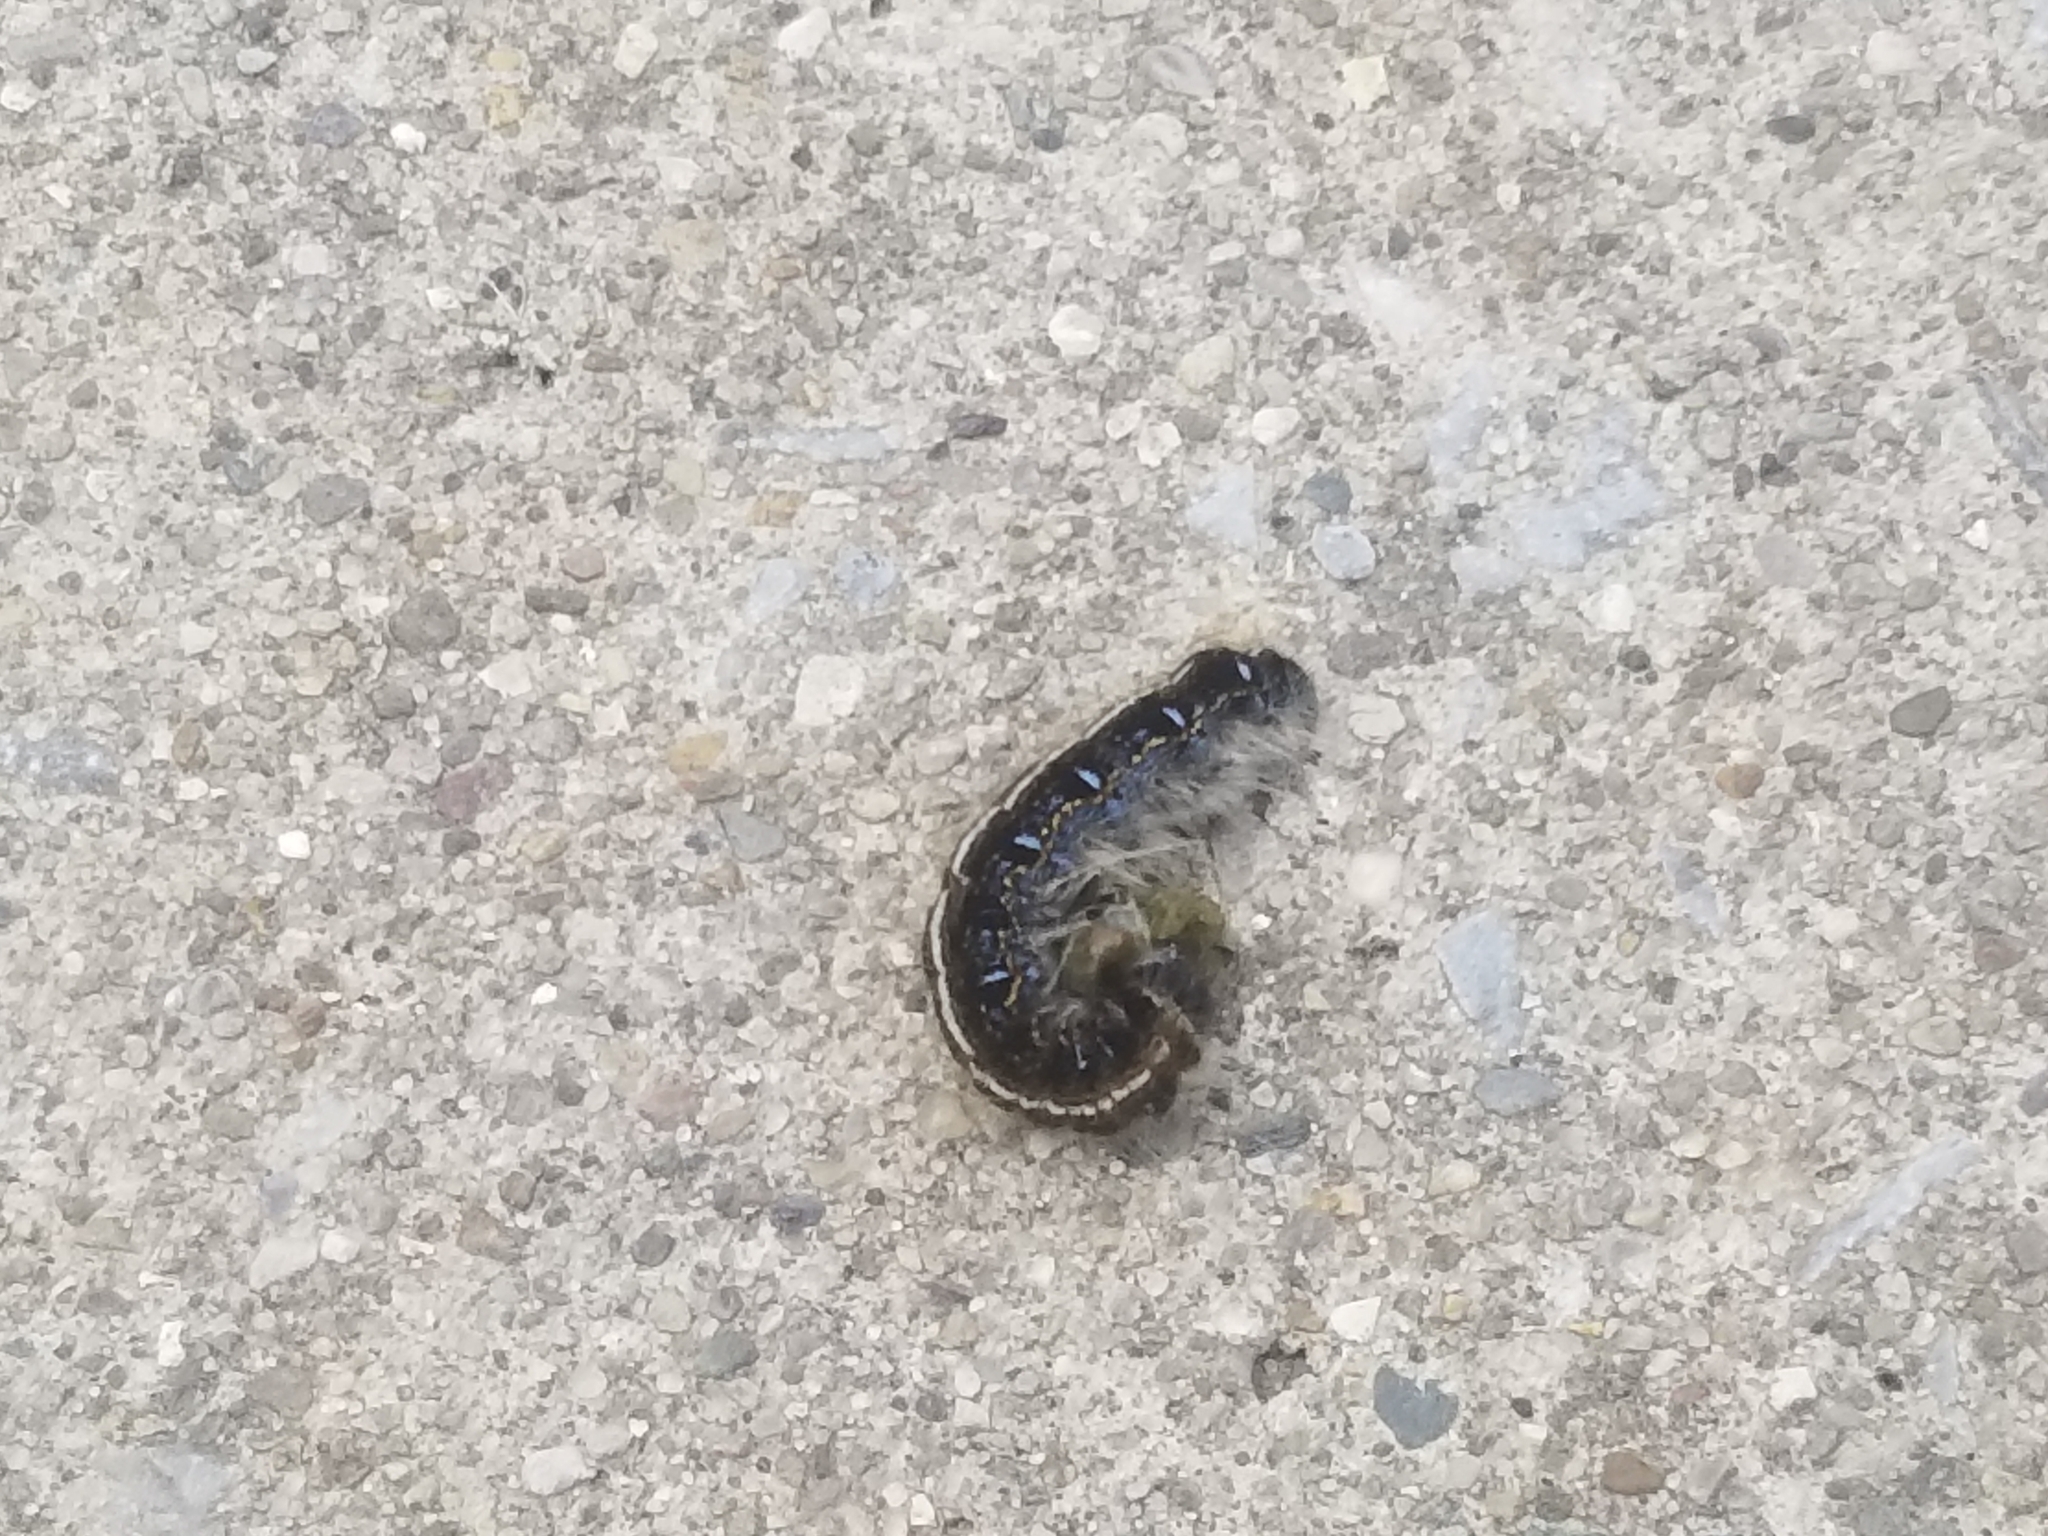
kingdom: Animalia
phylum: Arthropoda
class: Insecta
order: Lepidoptera
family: Lasiocampidae
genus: Malacosoma
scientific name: Malacosoma americana
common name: Eastern tent caterpillar moth
